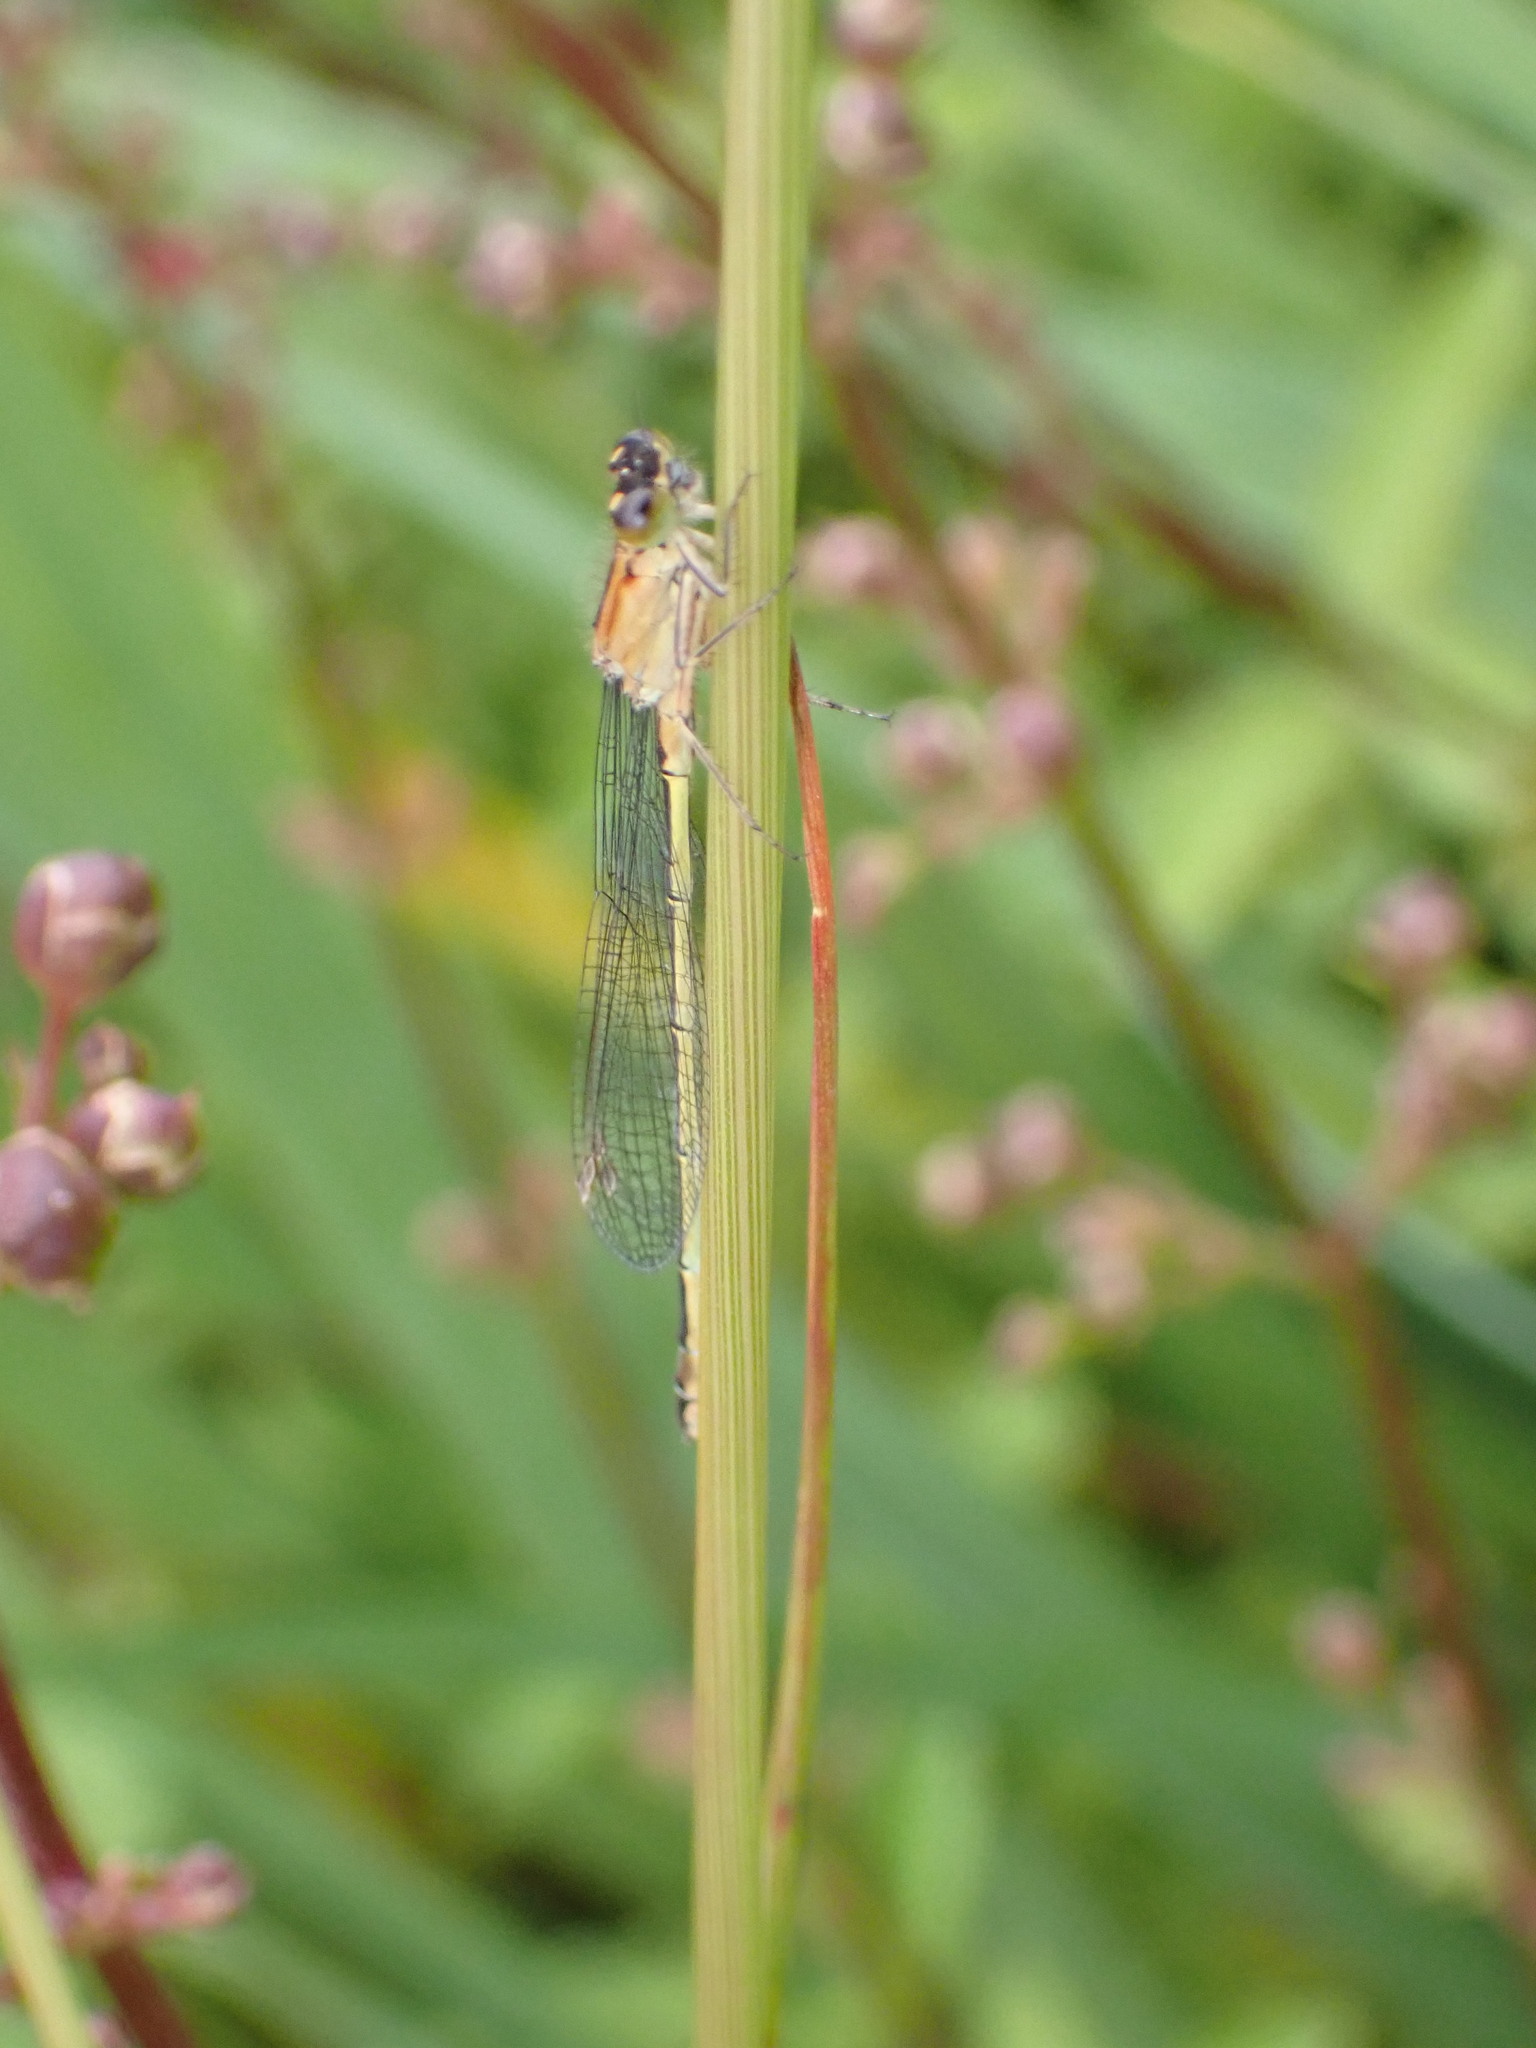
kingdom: Animalia
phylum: Arthropoda
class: Insecta
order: Odonata
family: Coenagrionidae
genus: Ischnura
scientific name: Ischnura elegans
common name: Blue-tailed damselfly
